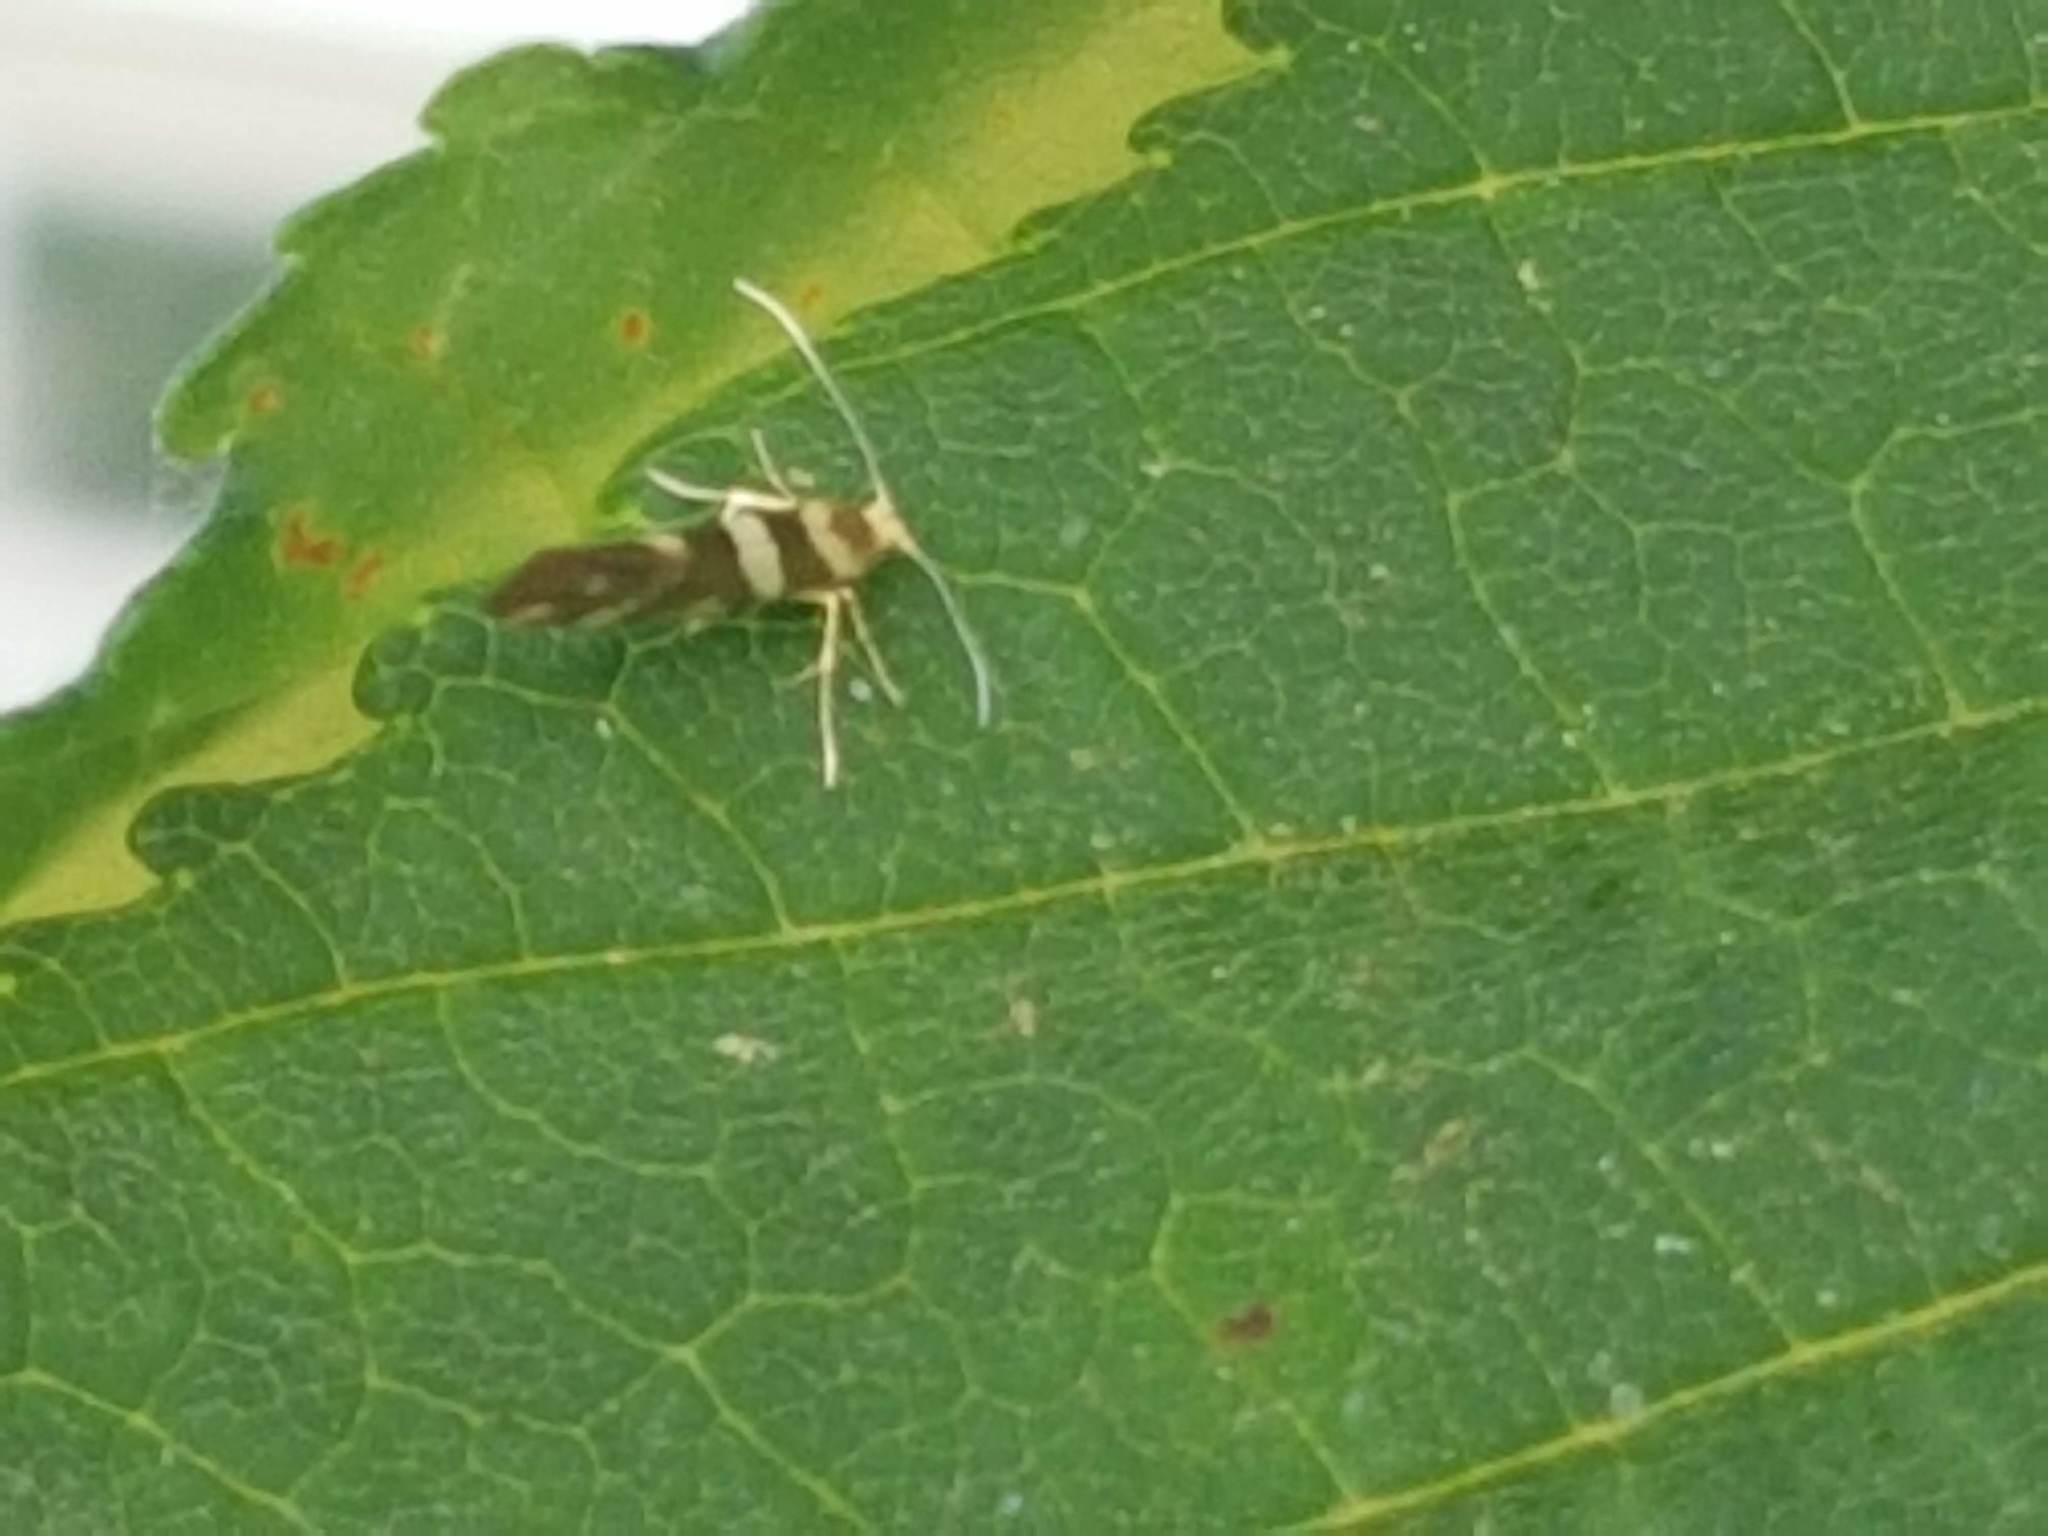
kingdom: Animalia
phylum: Arthropoda
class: Insecta
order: Lepidoptera
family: Argyresthiidae
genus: Argyresthia
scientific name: Argyresthia goedartella
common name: Golden argent
